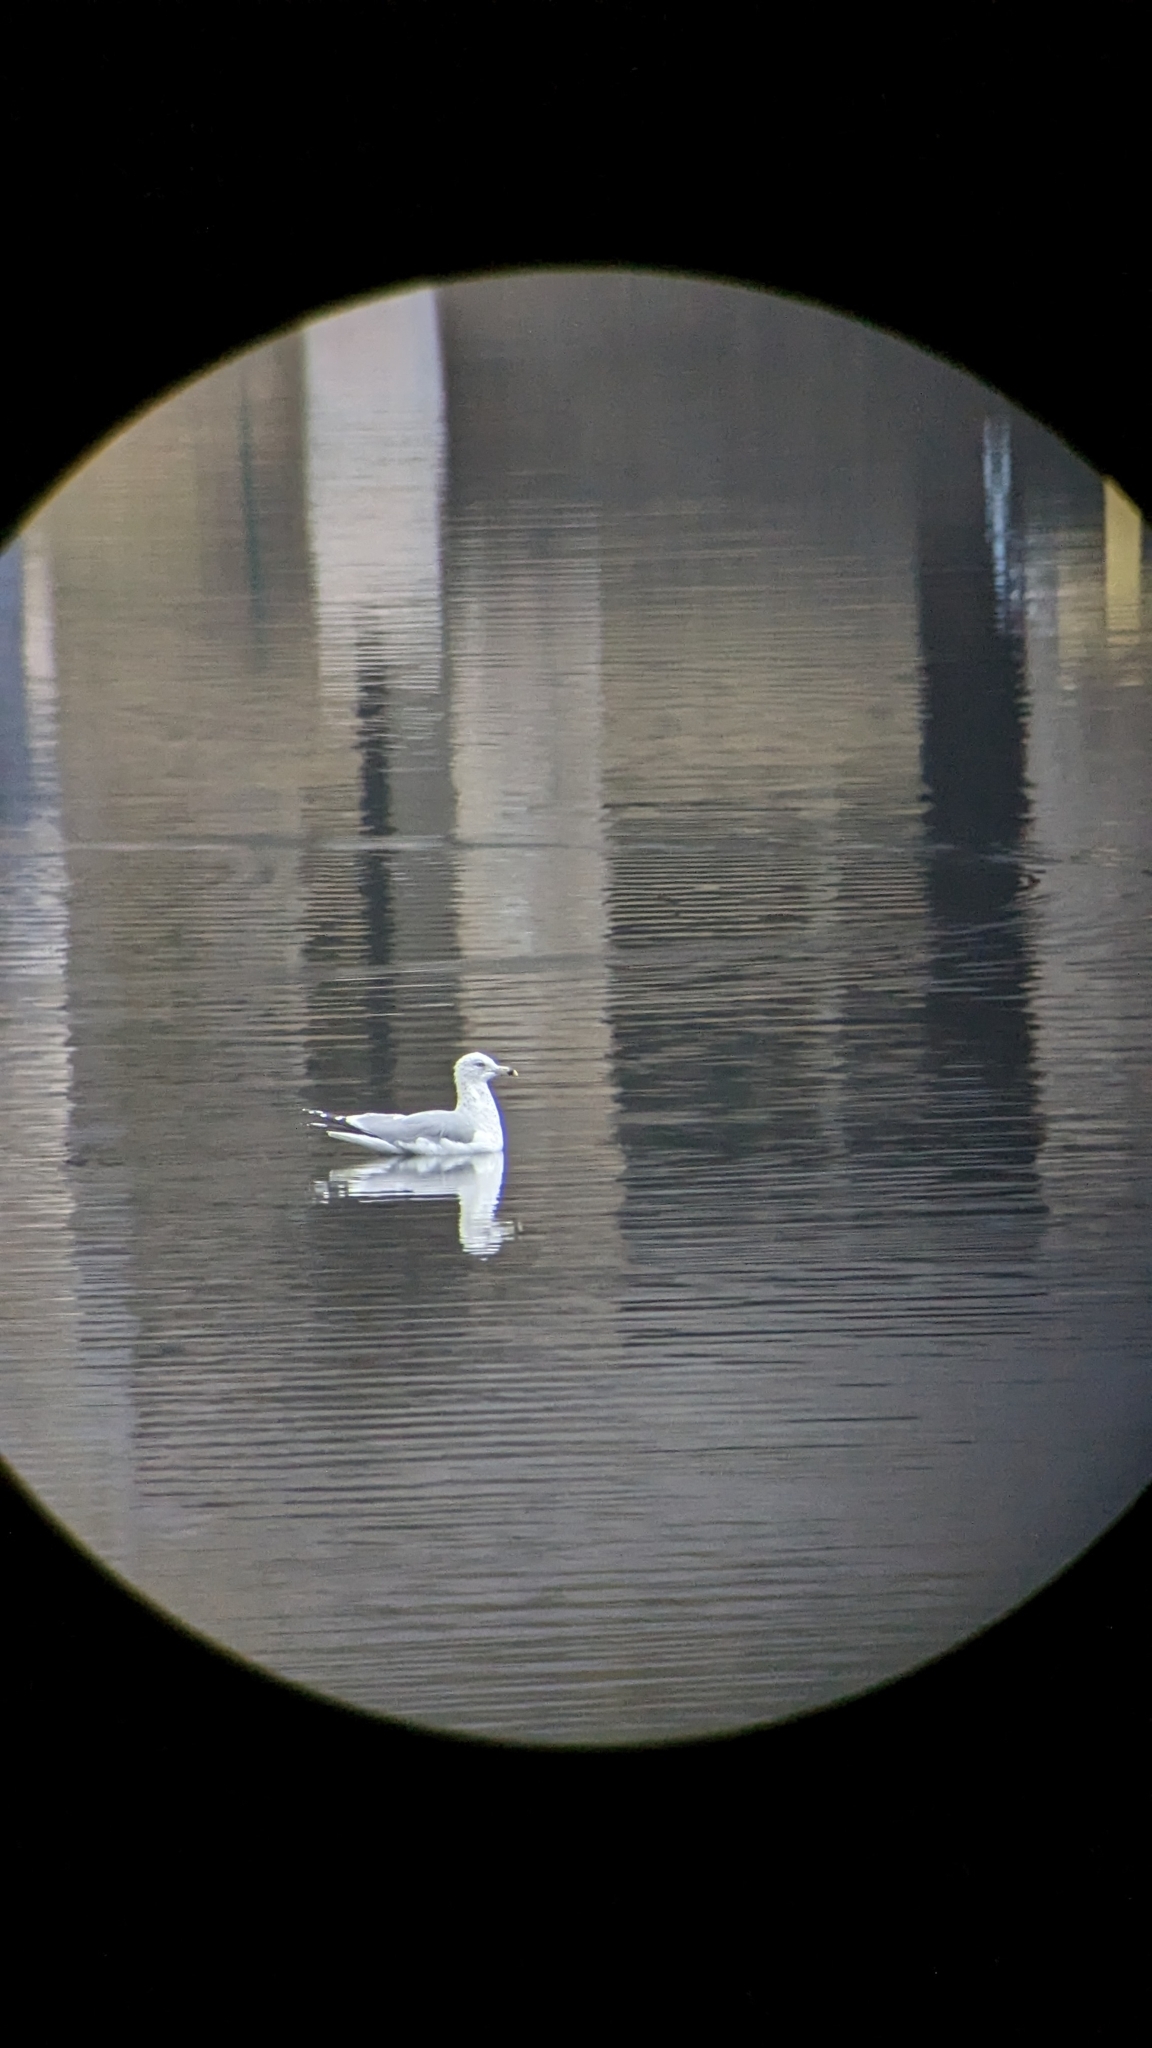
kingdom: Animalia
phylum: Chordata
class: Aves
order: Charadriiformes
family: Laridae
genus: Larus
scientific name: Larus delawarensis
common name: Ring-billed gull
